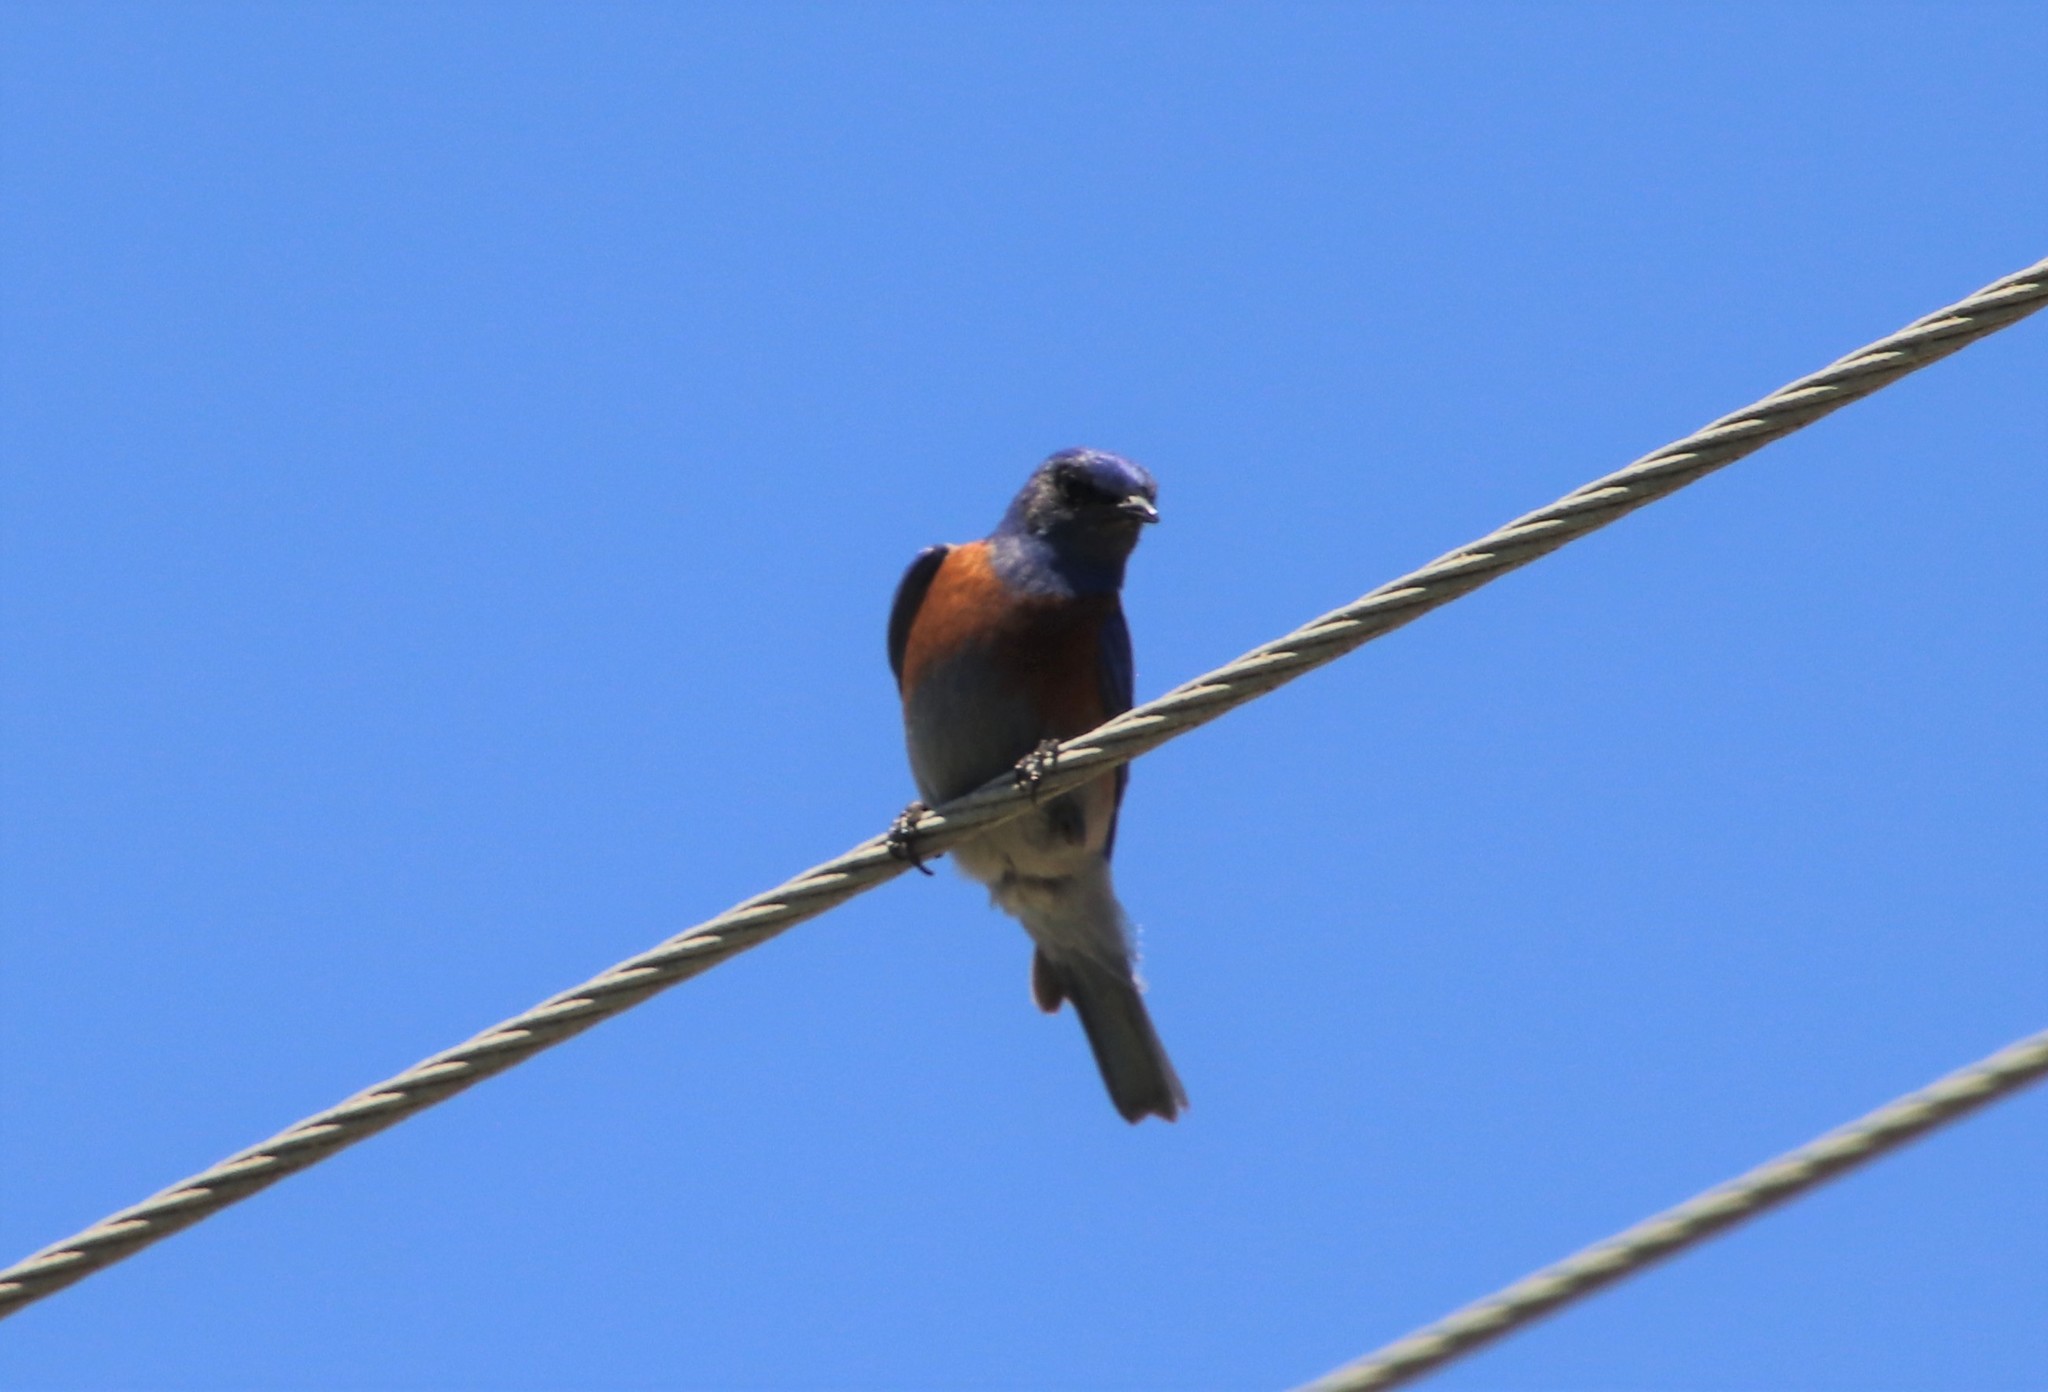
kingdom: Animalia
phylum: Chordata
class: Aves
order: Passeriformes
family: Turdidae
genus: Sialia
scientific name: Sialia mexicana
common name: Western bluebird
